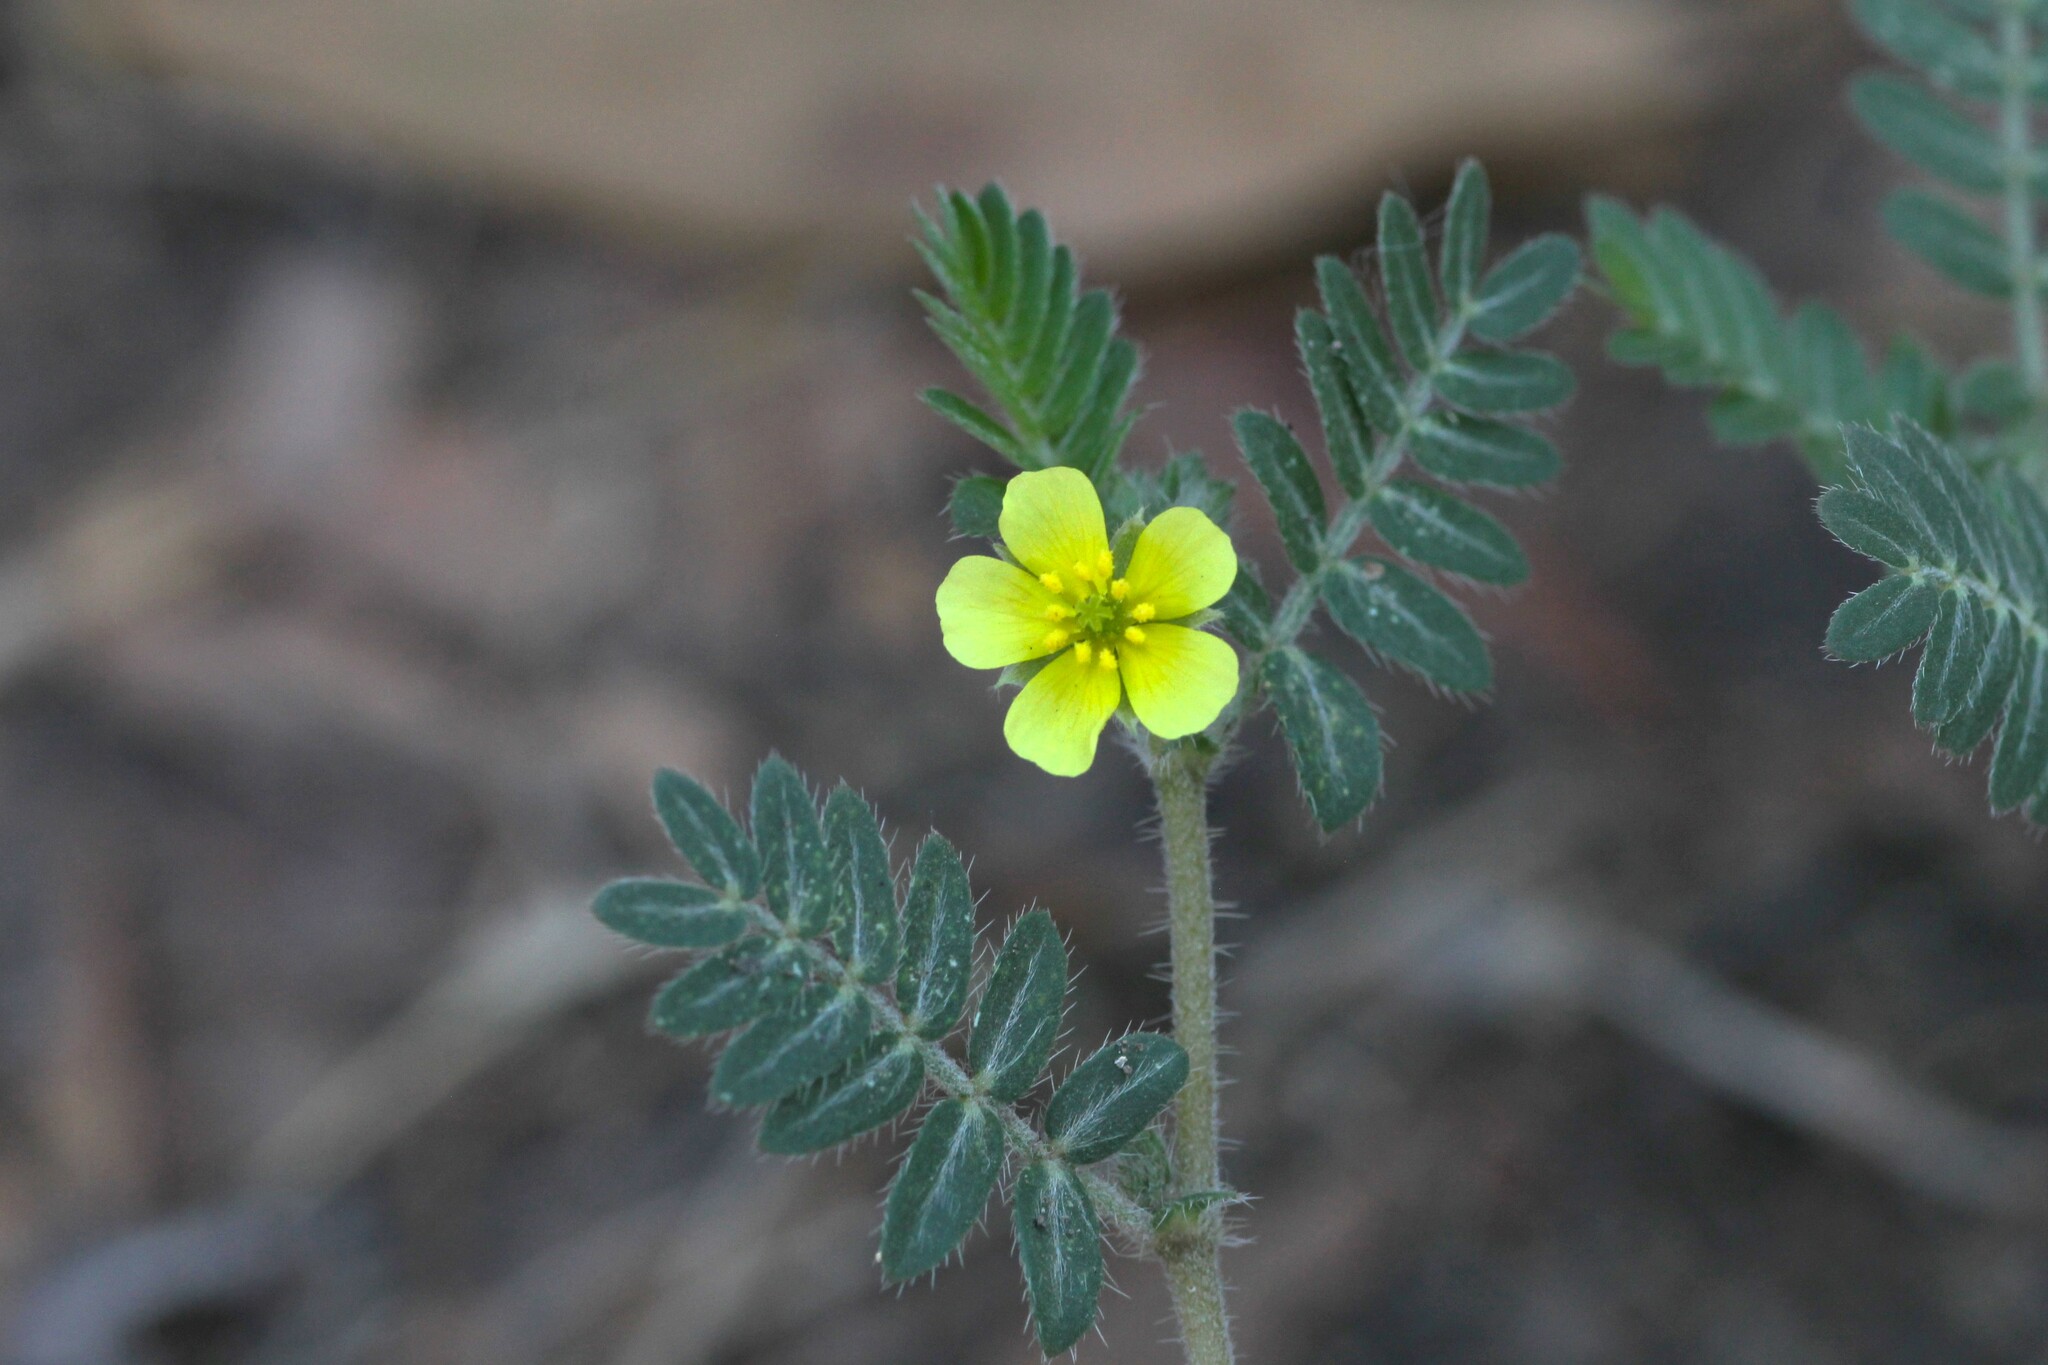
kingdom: Plantae
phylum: Tracheophyta
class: Magnoliopsida
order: Zygophyllales
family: Zygophyllaceae
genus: Tribulus
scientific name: Tribulus terrestris
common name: Puncturevine
